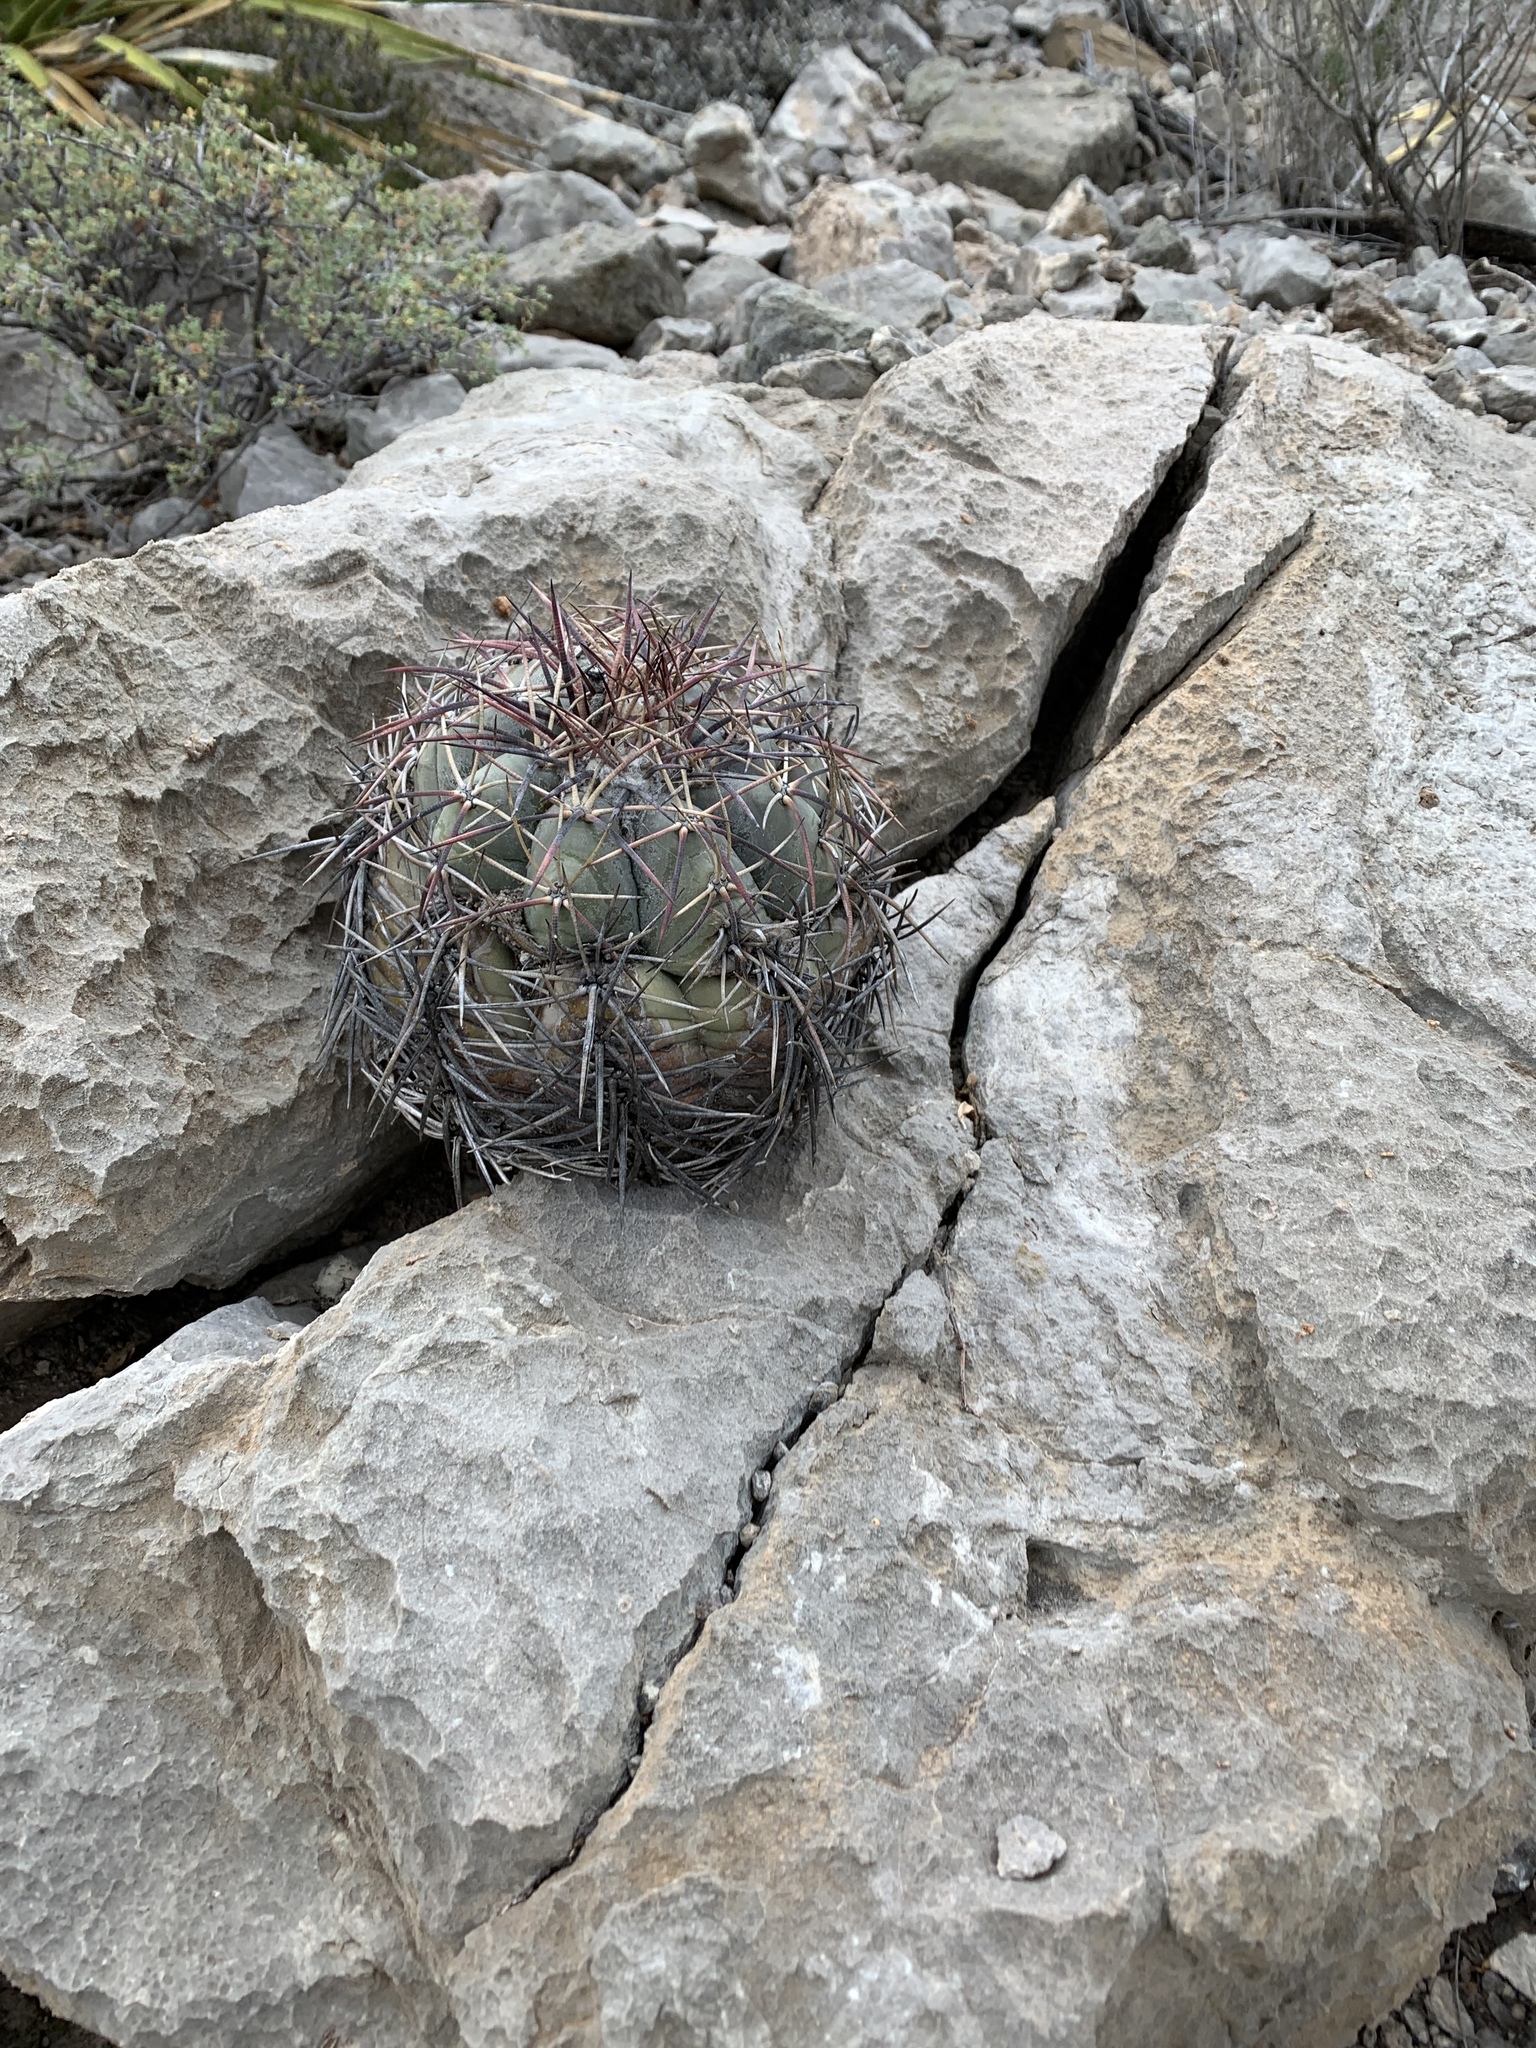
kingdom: Plantae
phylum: Tracheophyta
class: Magnoliopsida
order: Caryophyllales
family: Cactaceae
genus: Echinocactus
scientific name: Echinocactus horizonthalonius
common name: Devilshead
